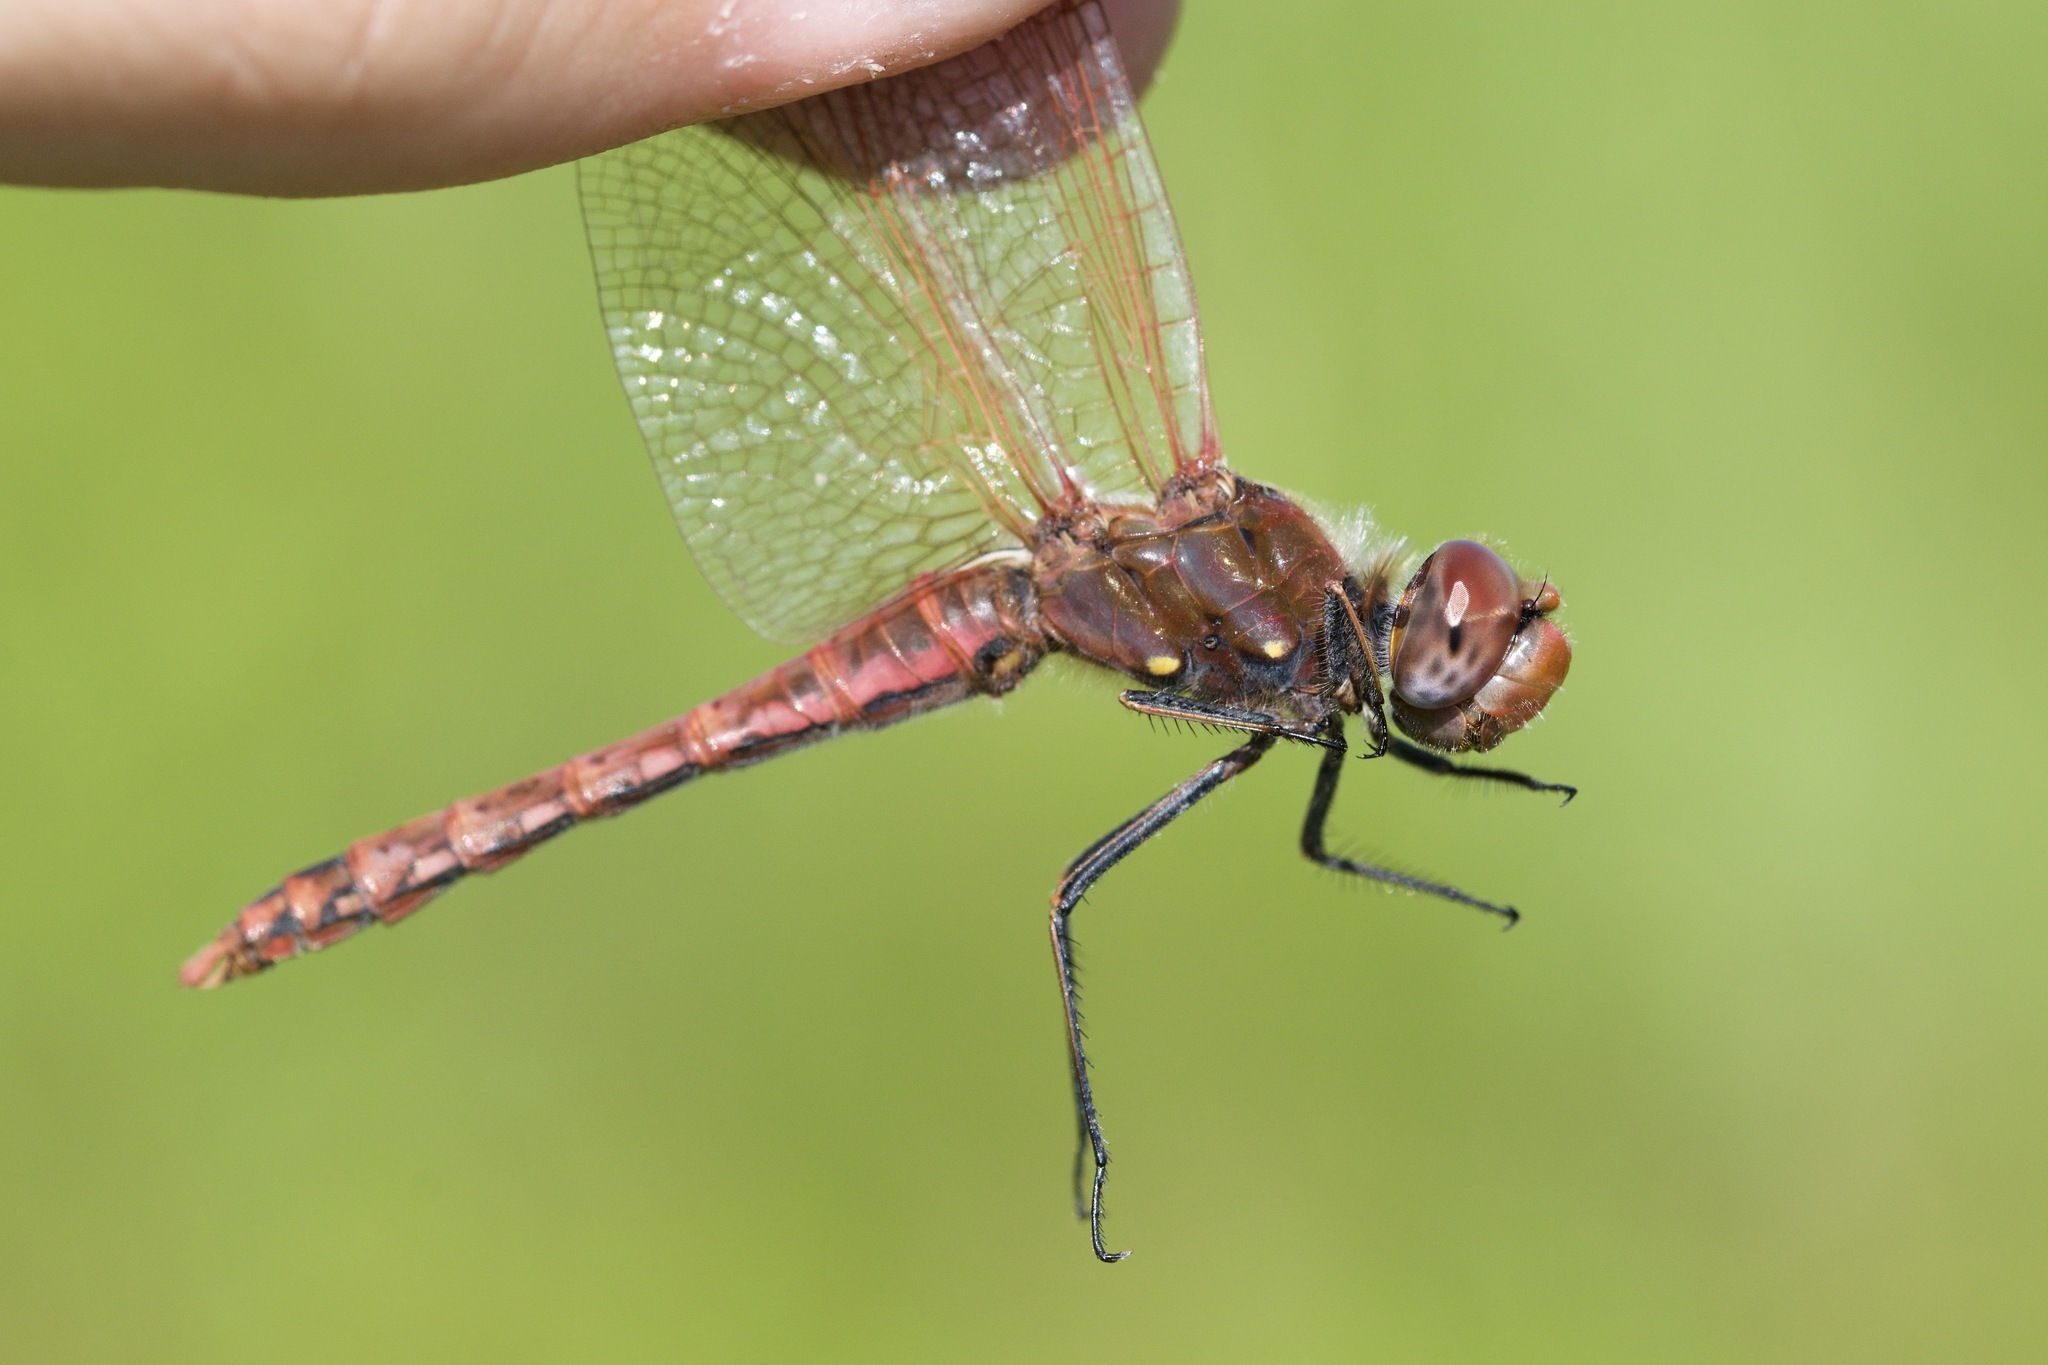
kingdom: Animalia
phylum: Arthropoda
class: Insecta
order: Odonata
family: Libellulidae
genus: Sympetrum
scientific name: Sympetrum corruptum
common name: Variegated meadowhawk
